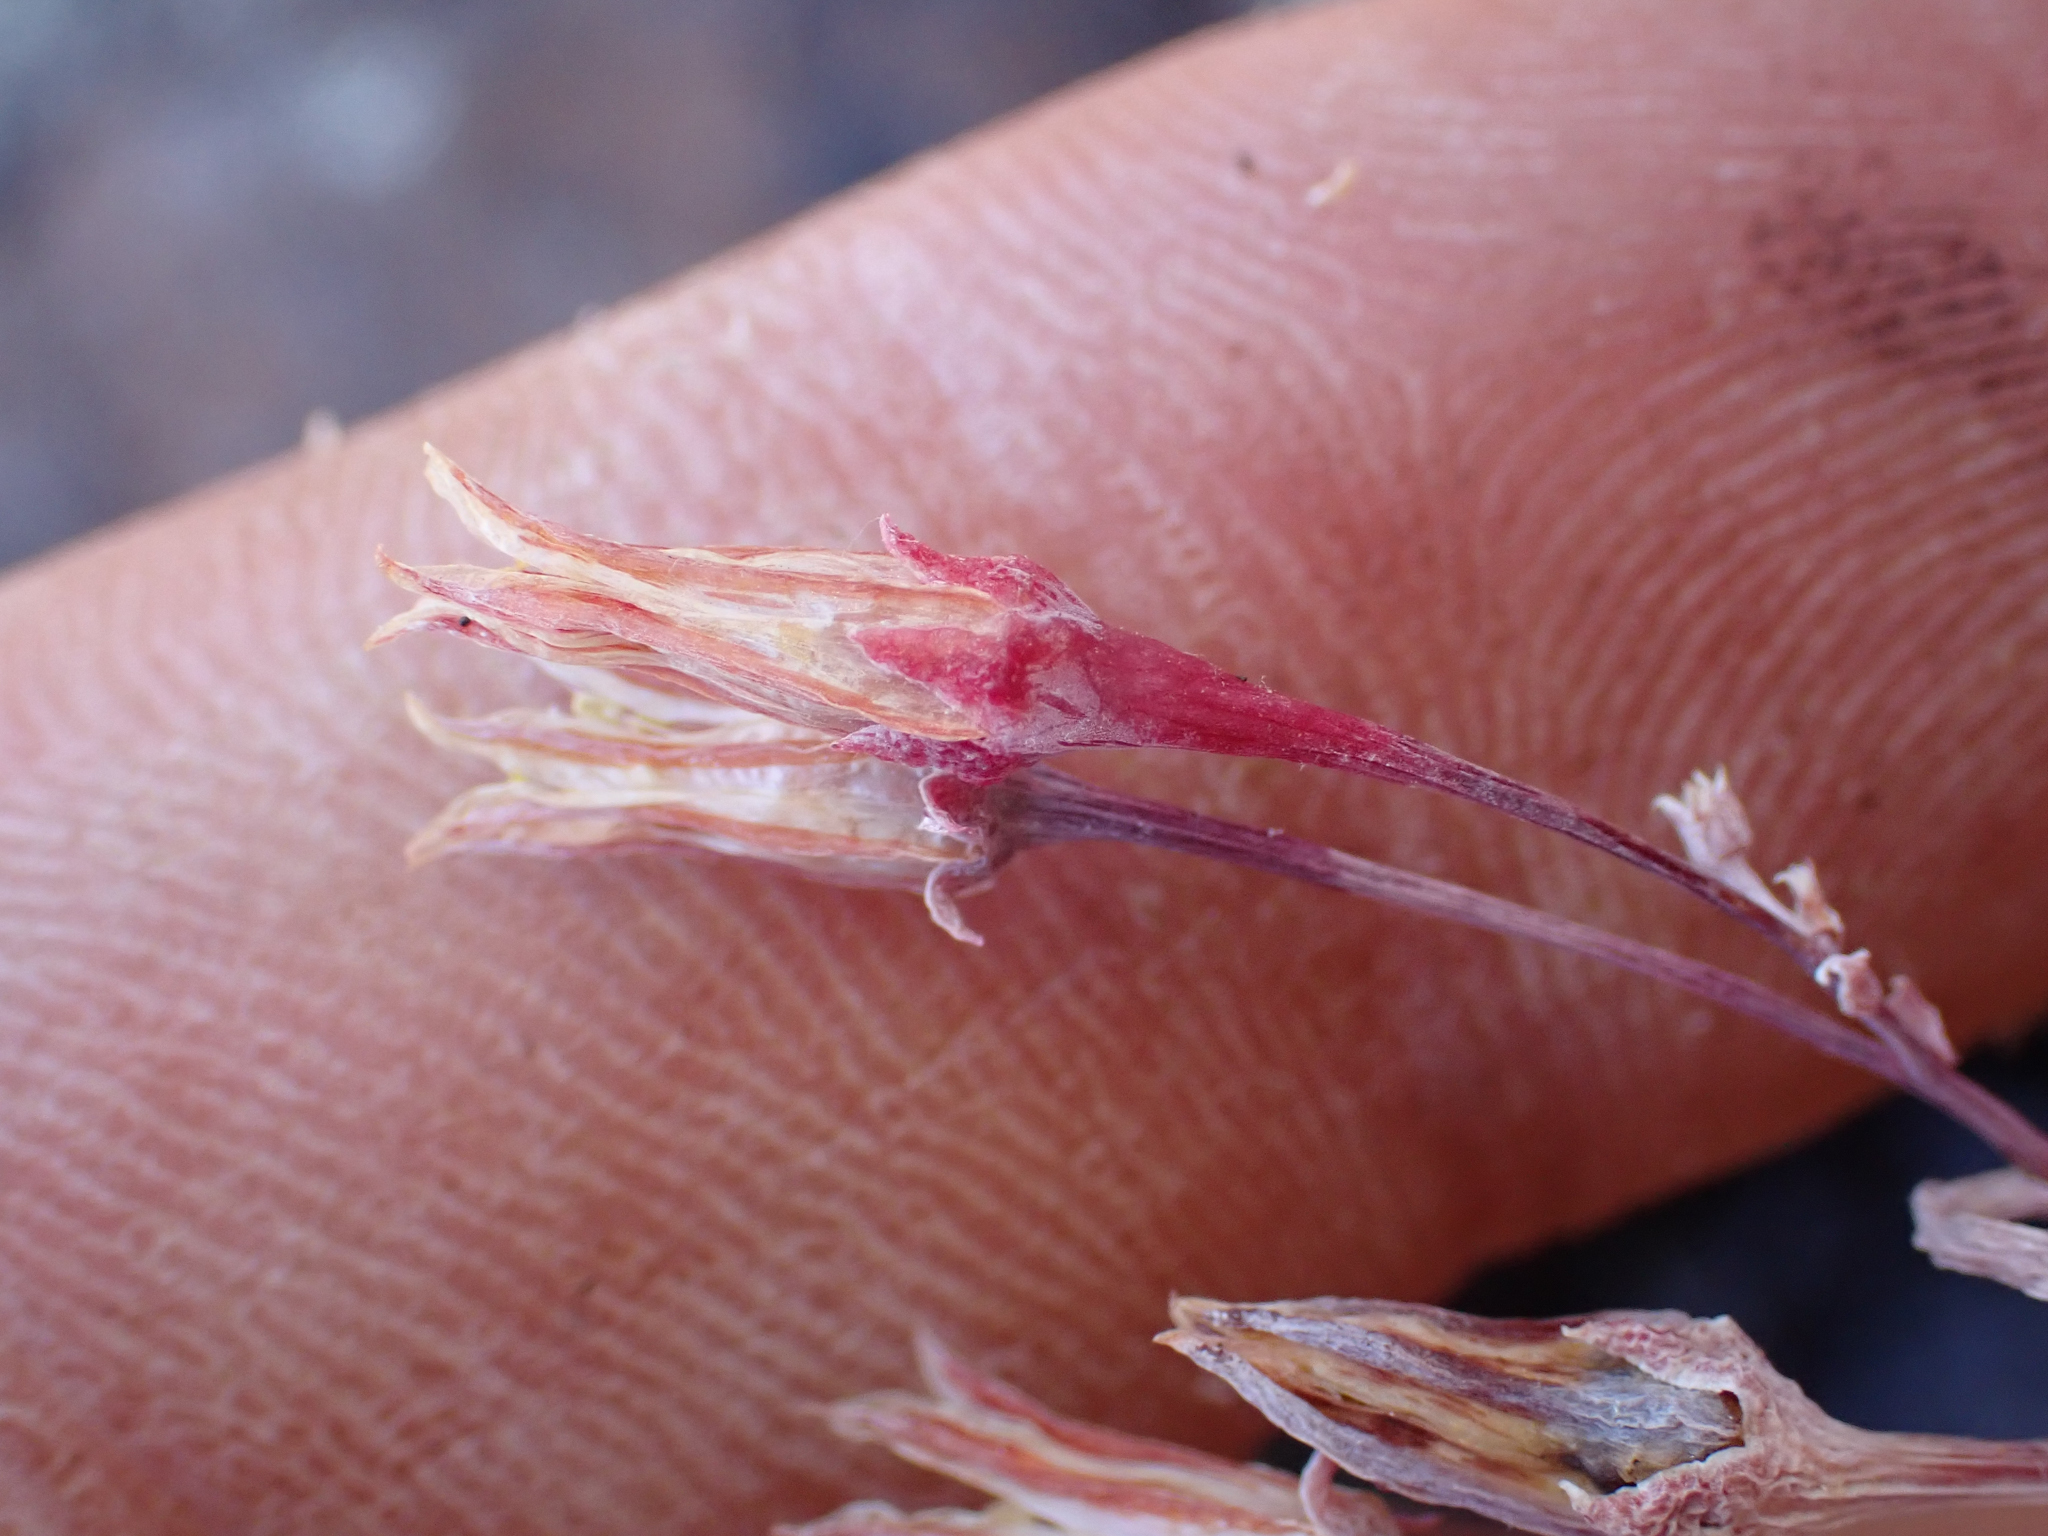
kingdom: Plantae
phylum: Tracheophyta
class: Magnoliopsida
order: Saxifragales
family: Crassulaceae
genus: Dudleya
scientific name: Dudleya pauciflora
